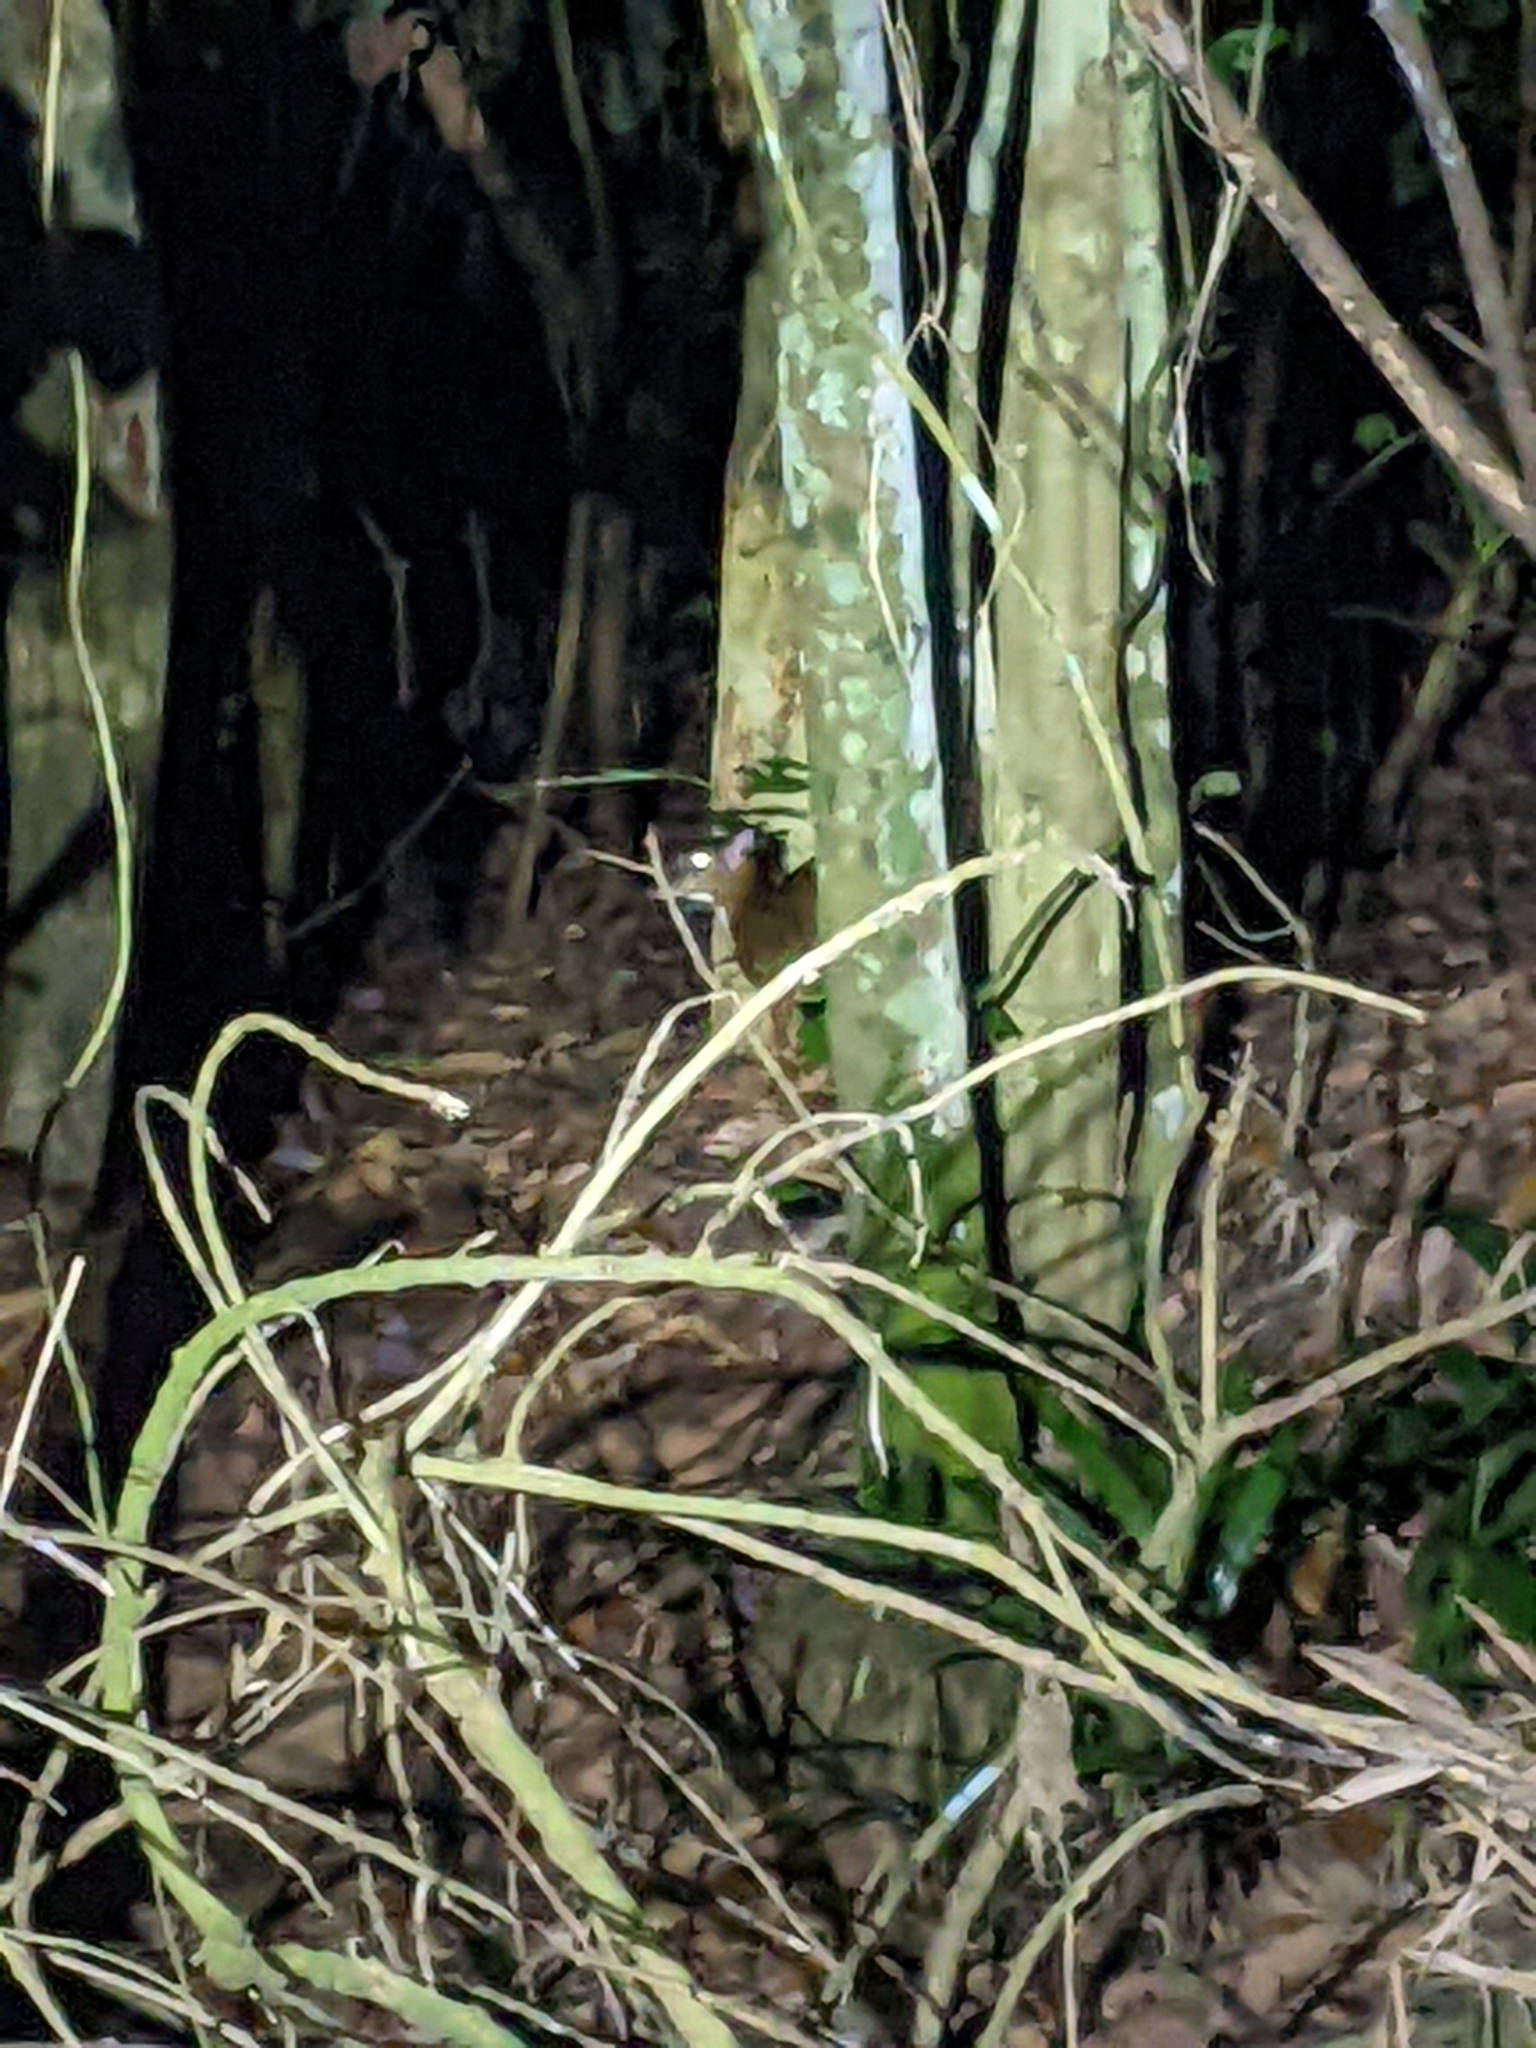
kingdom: Animalia
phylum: Chordata
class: Mammalia
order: Artiodactyla
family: Tragulidae
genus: Tragulus
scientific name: Tragulus kanchil
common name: Lesser mouse-deer
